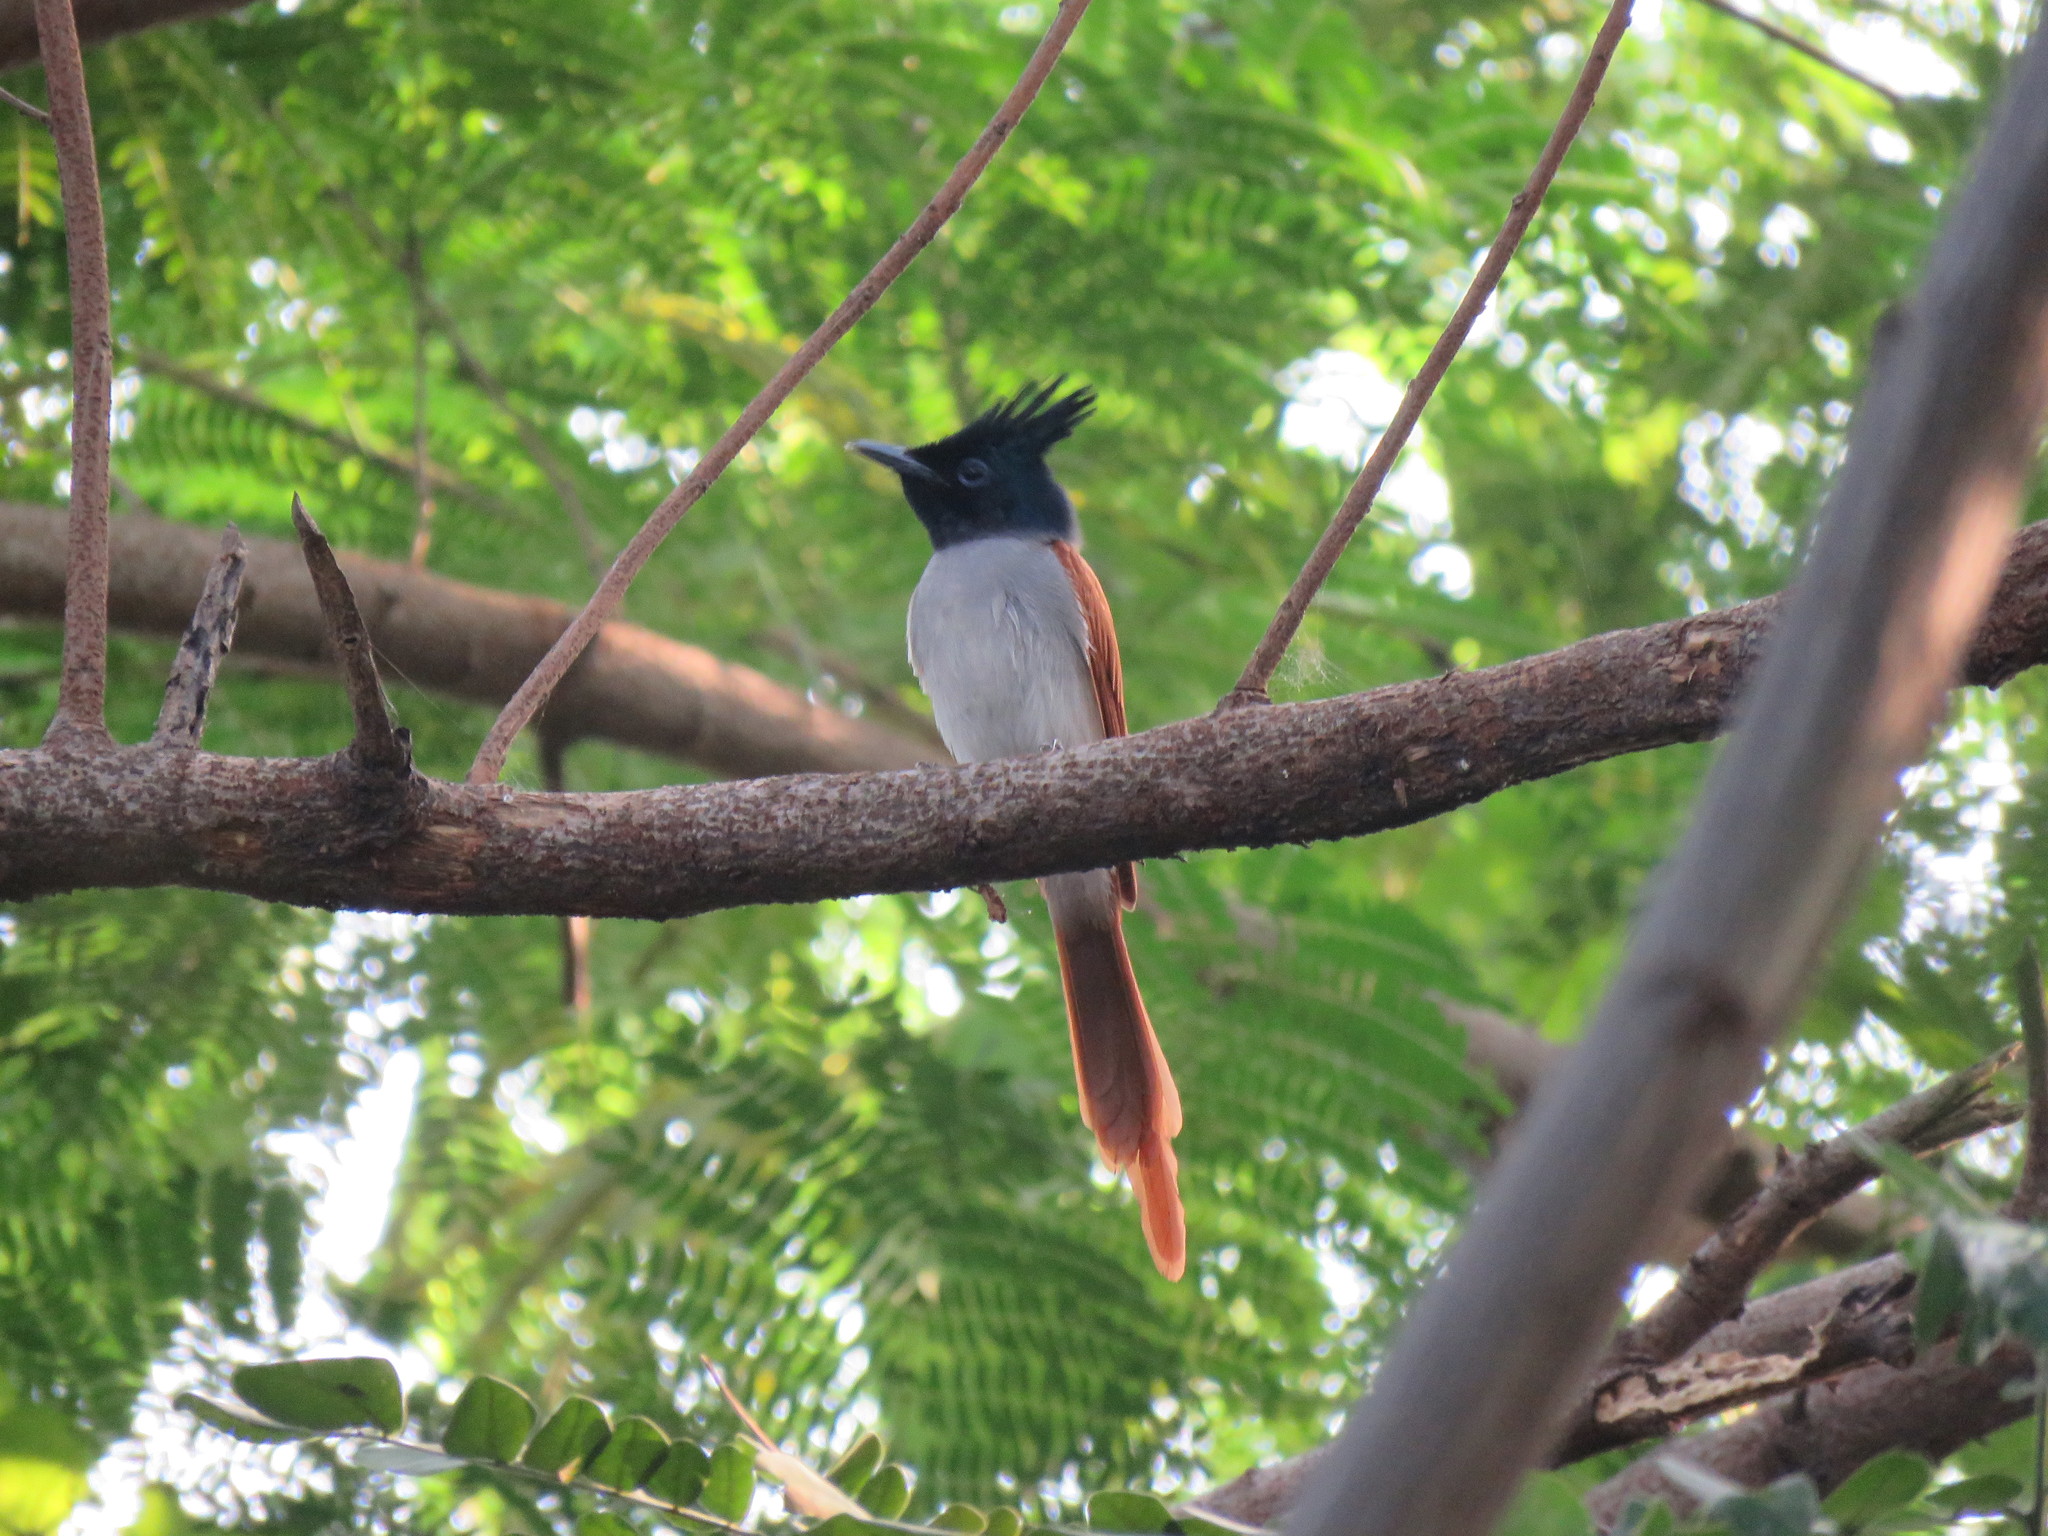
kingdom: Animalia
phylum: Chordata
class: Aves
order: Passeriformes
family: Monarchidae
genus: Terpsiphone
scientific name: Terpsiphone paradisi
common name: Indian paradise flycatcher
